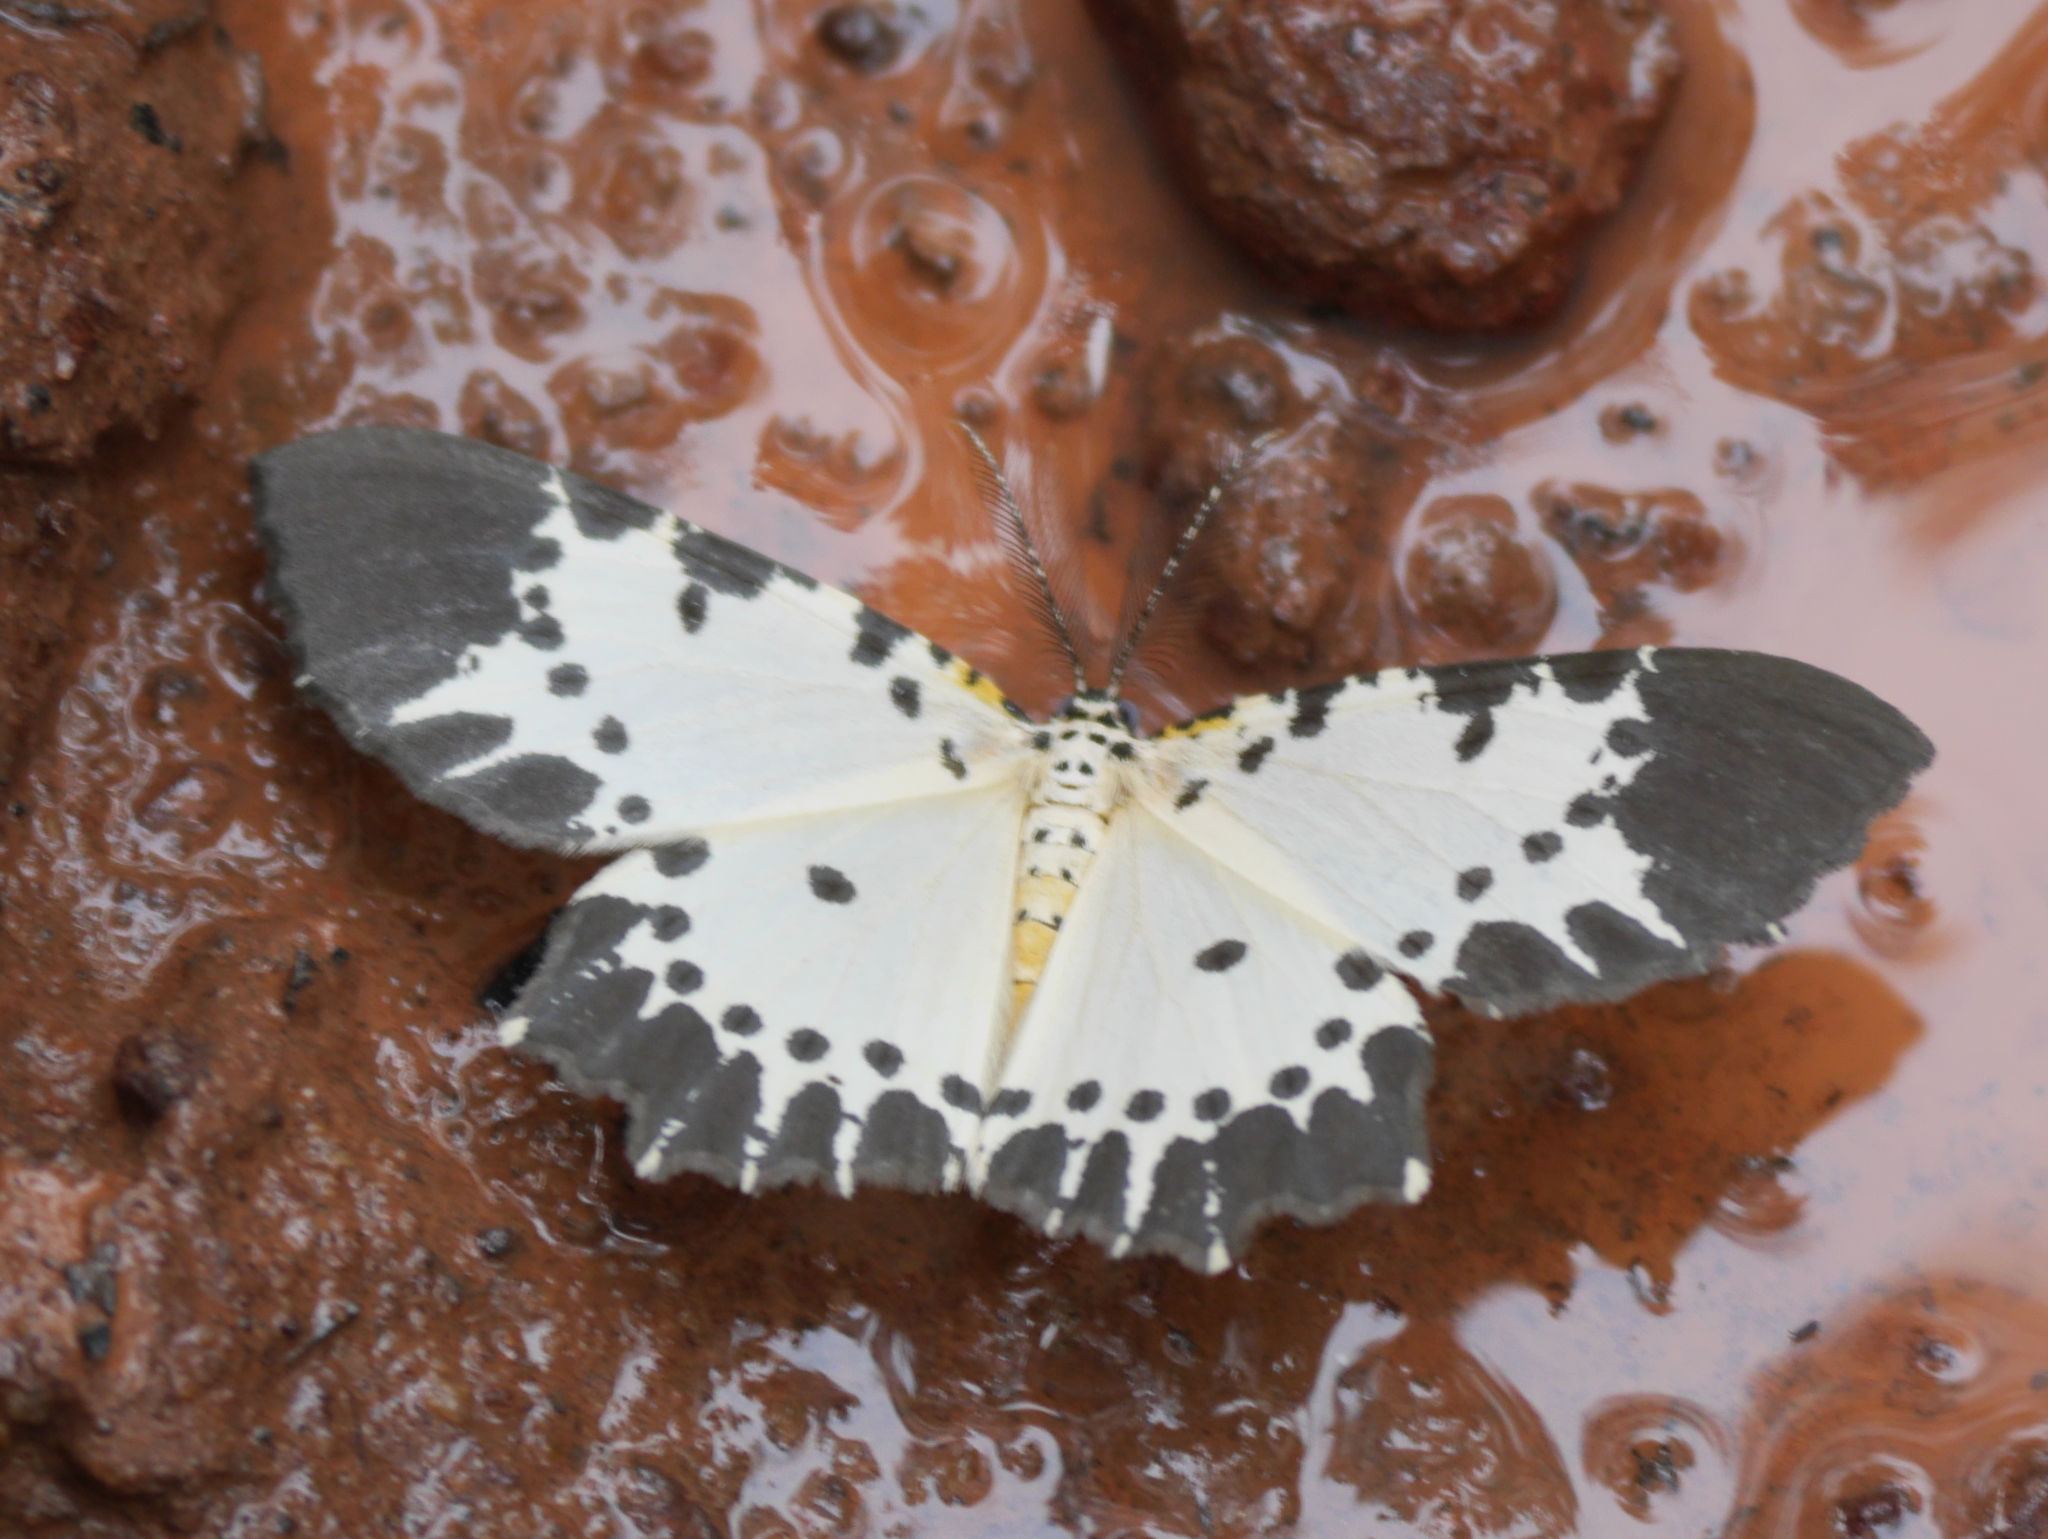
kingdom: Animalia
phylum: Arthropoda
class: Insecta
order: Lepidoptera
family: Geometridae
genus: Narthecusa
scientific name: Narthecusa tenuiorata
